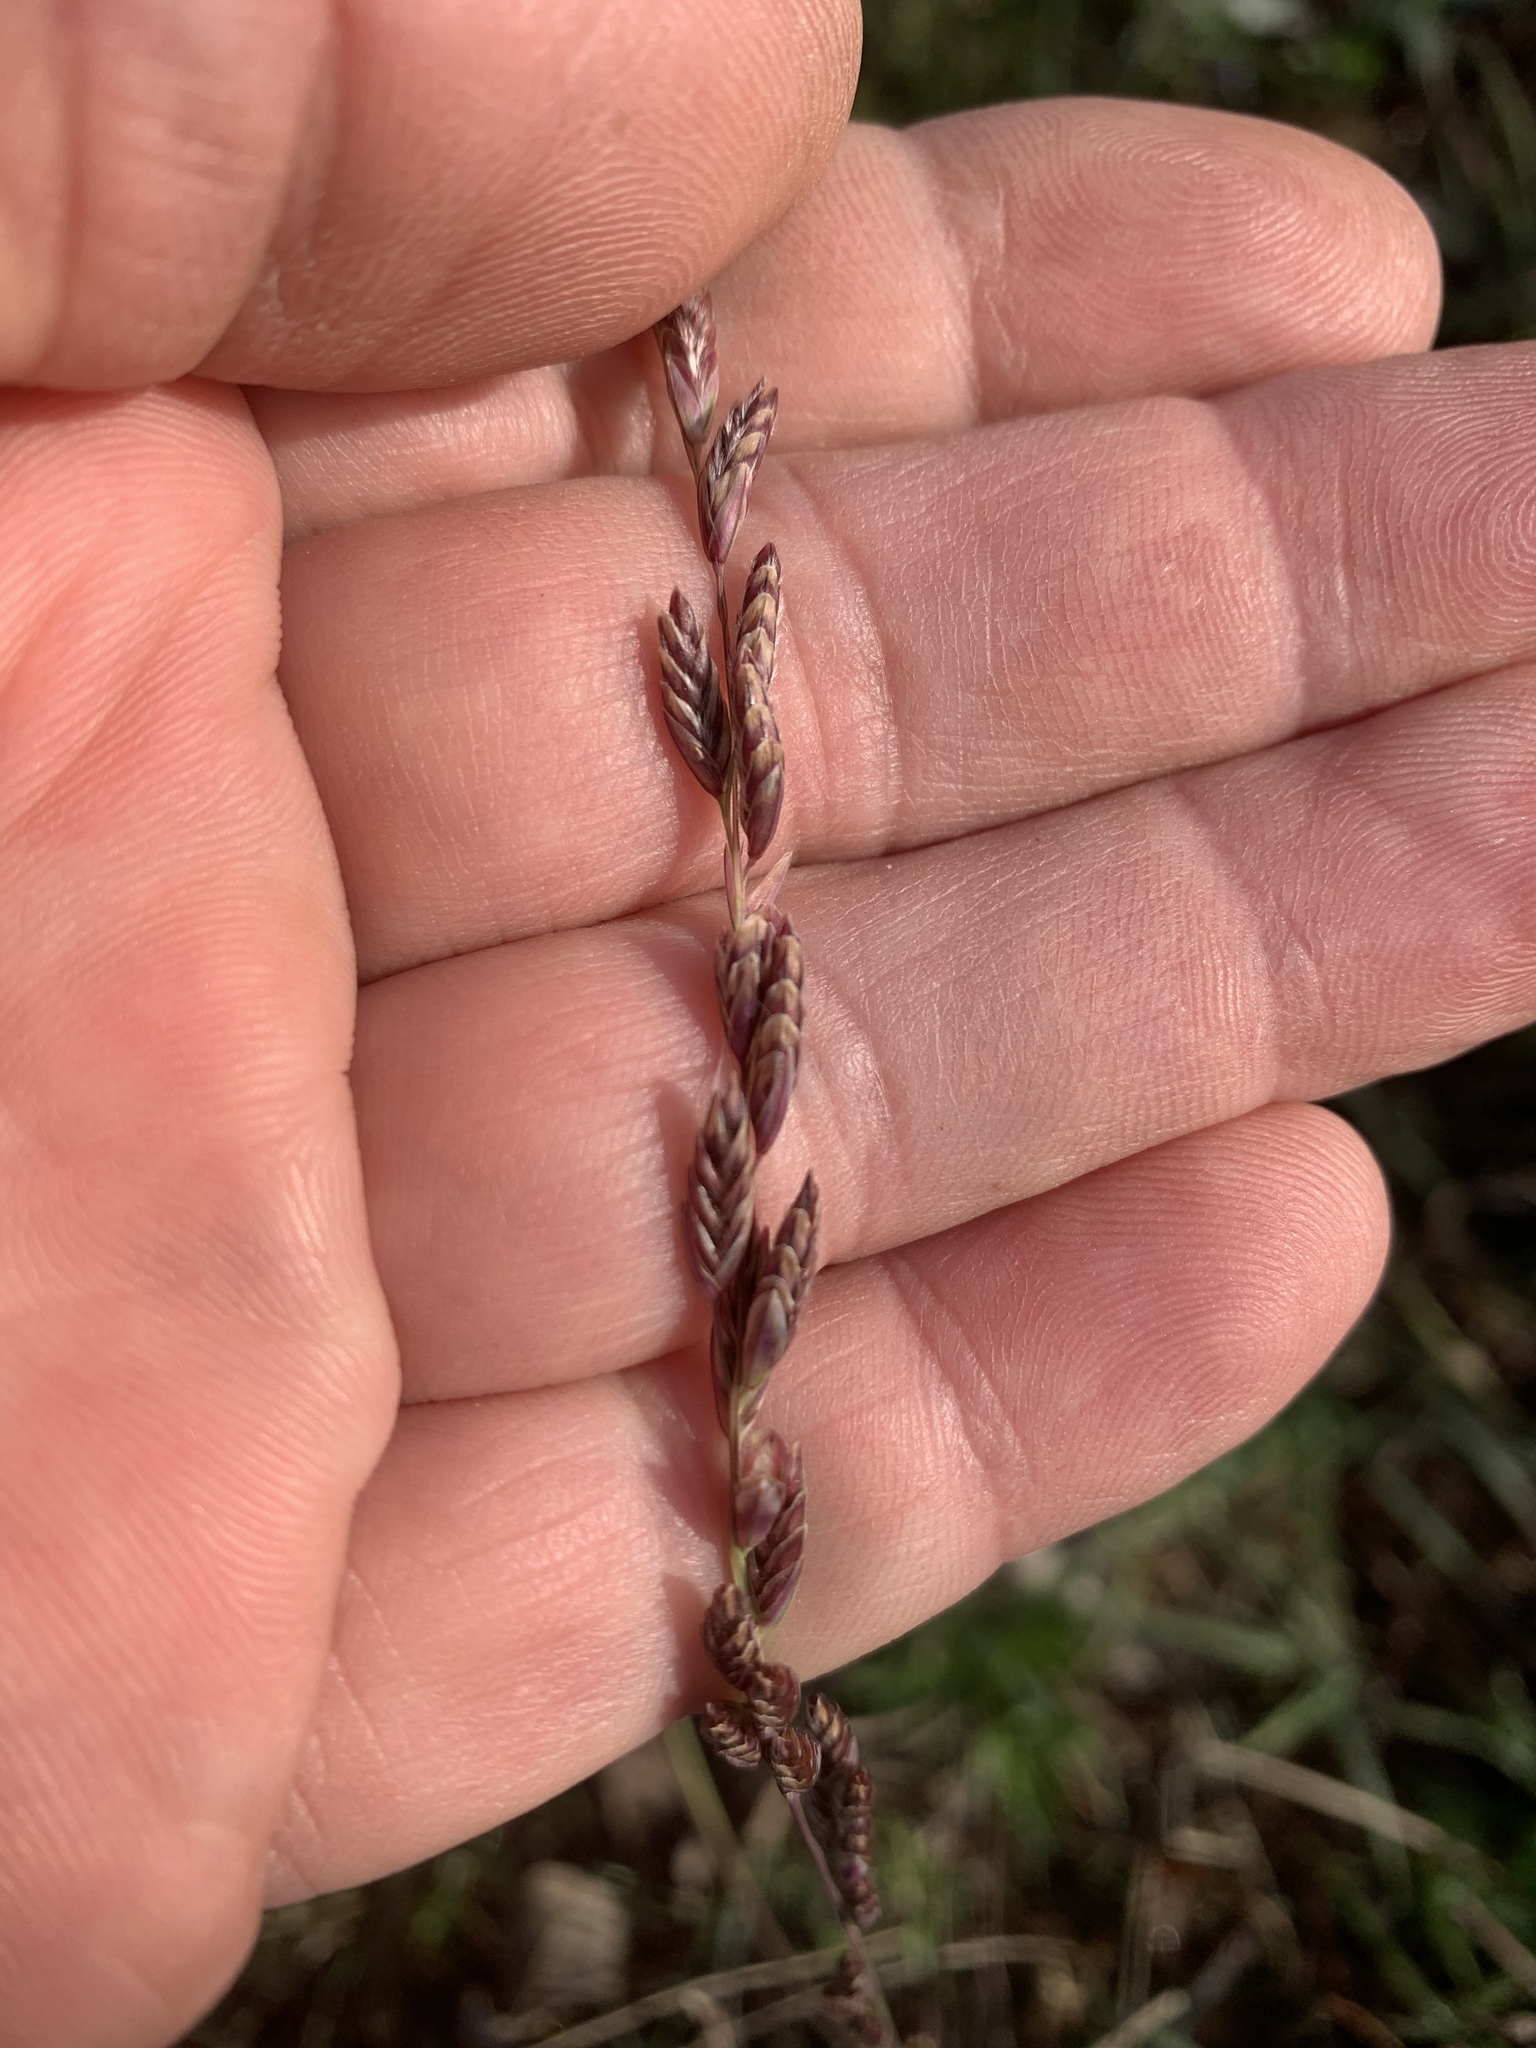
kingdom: Plantae
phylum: Tracheophyta
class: Liliopsida
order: Poales
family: Poaceae
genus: Tridentopsis
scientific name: Tridentopsis mutica
